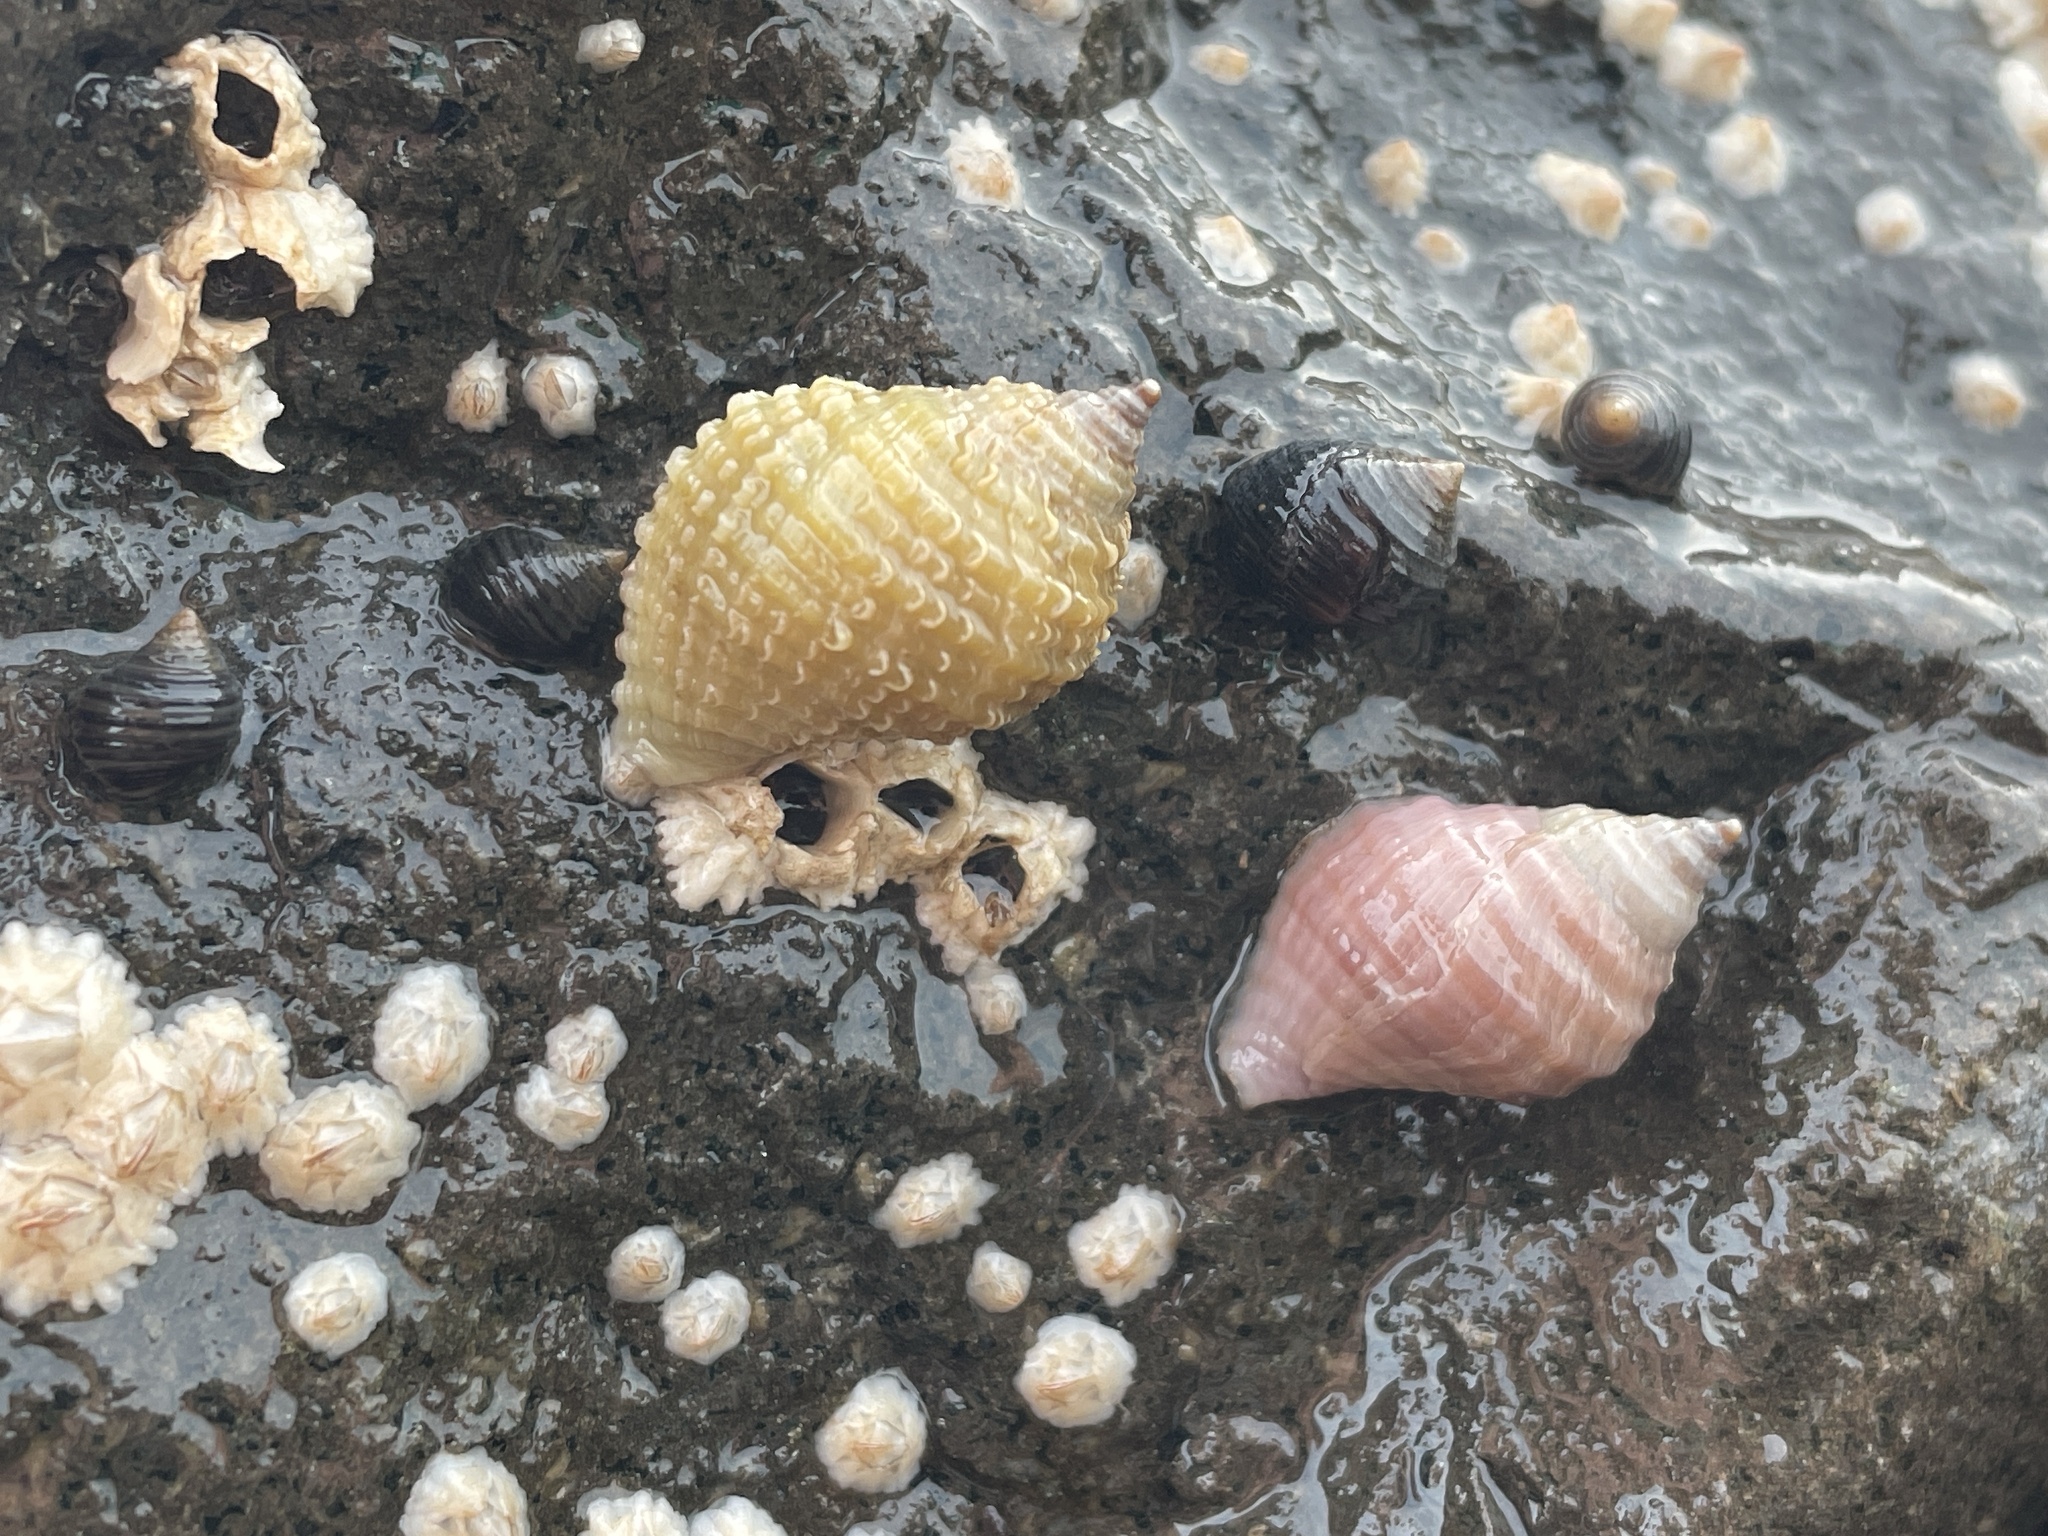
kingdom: Animalia
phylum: Mollusca
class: Gastropoda
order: Neogastropoda
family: Muricidae
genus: Nucella
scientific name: Nucella lapillus
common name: Dog whelk
